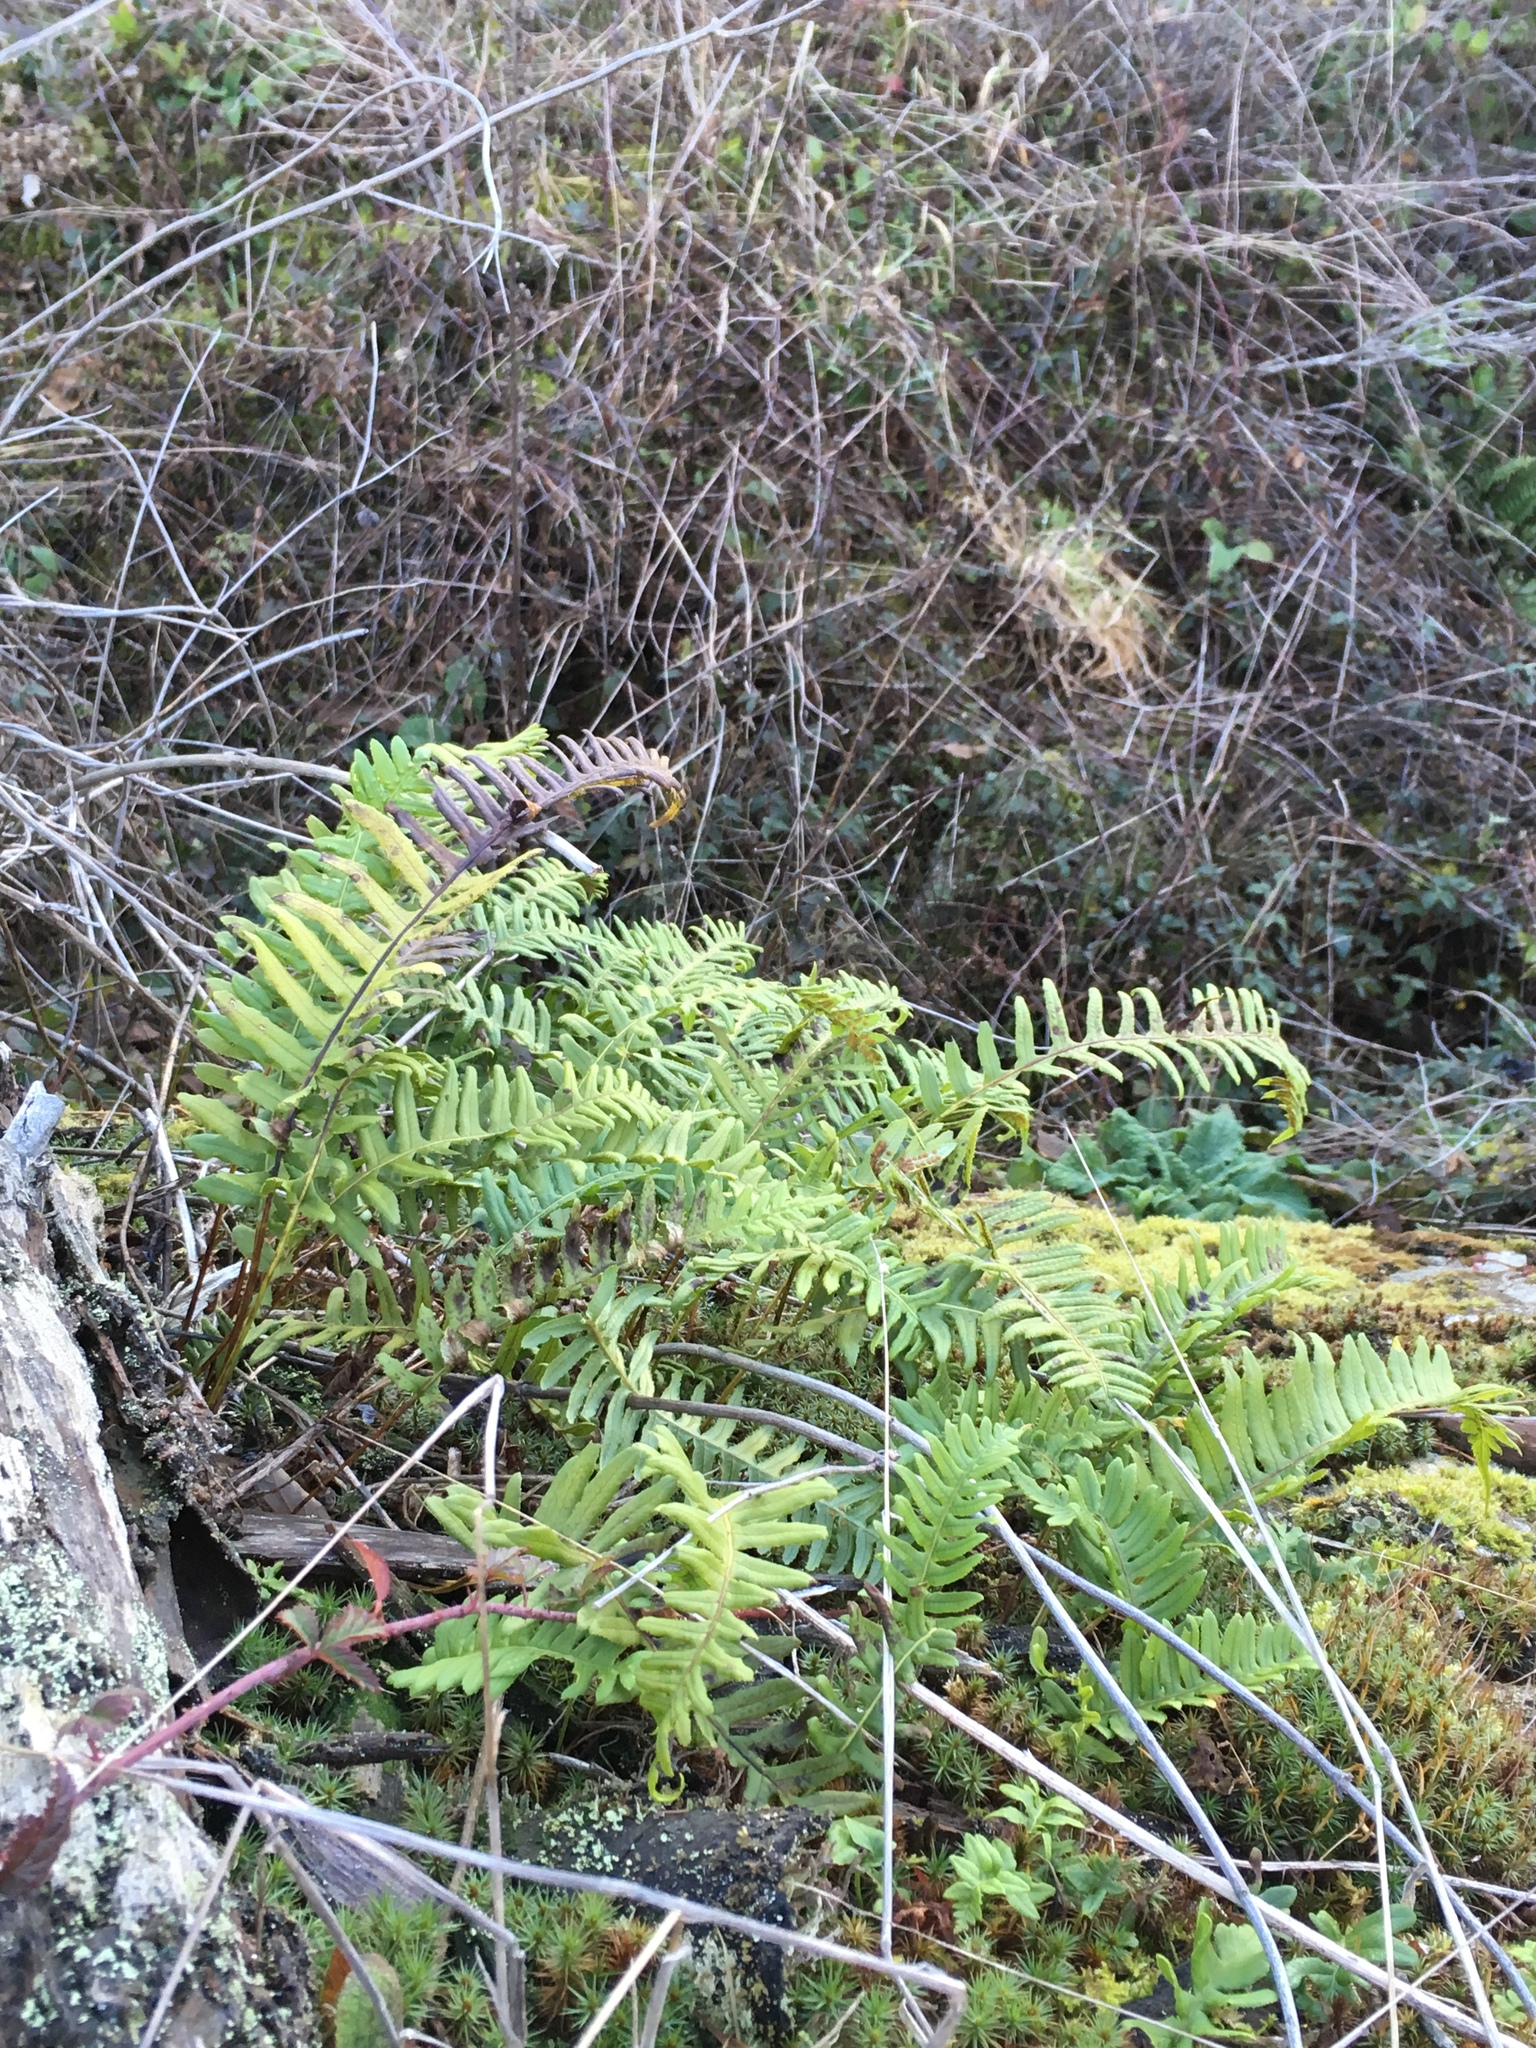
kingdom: Plantae
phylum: Tracheophyta
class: Polypodiopsida
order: Polypodiales
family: Polypodiaceae
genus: Polypodium
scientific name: Polypodium glycyrrhiza
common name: Licorice fern
